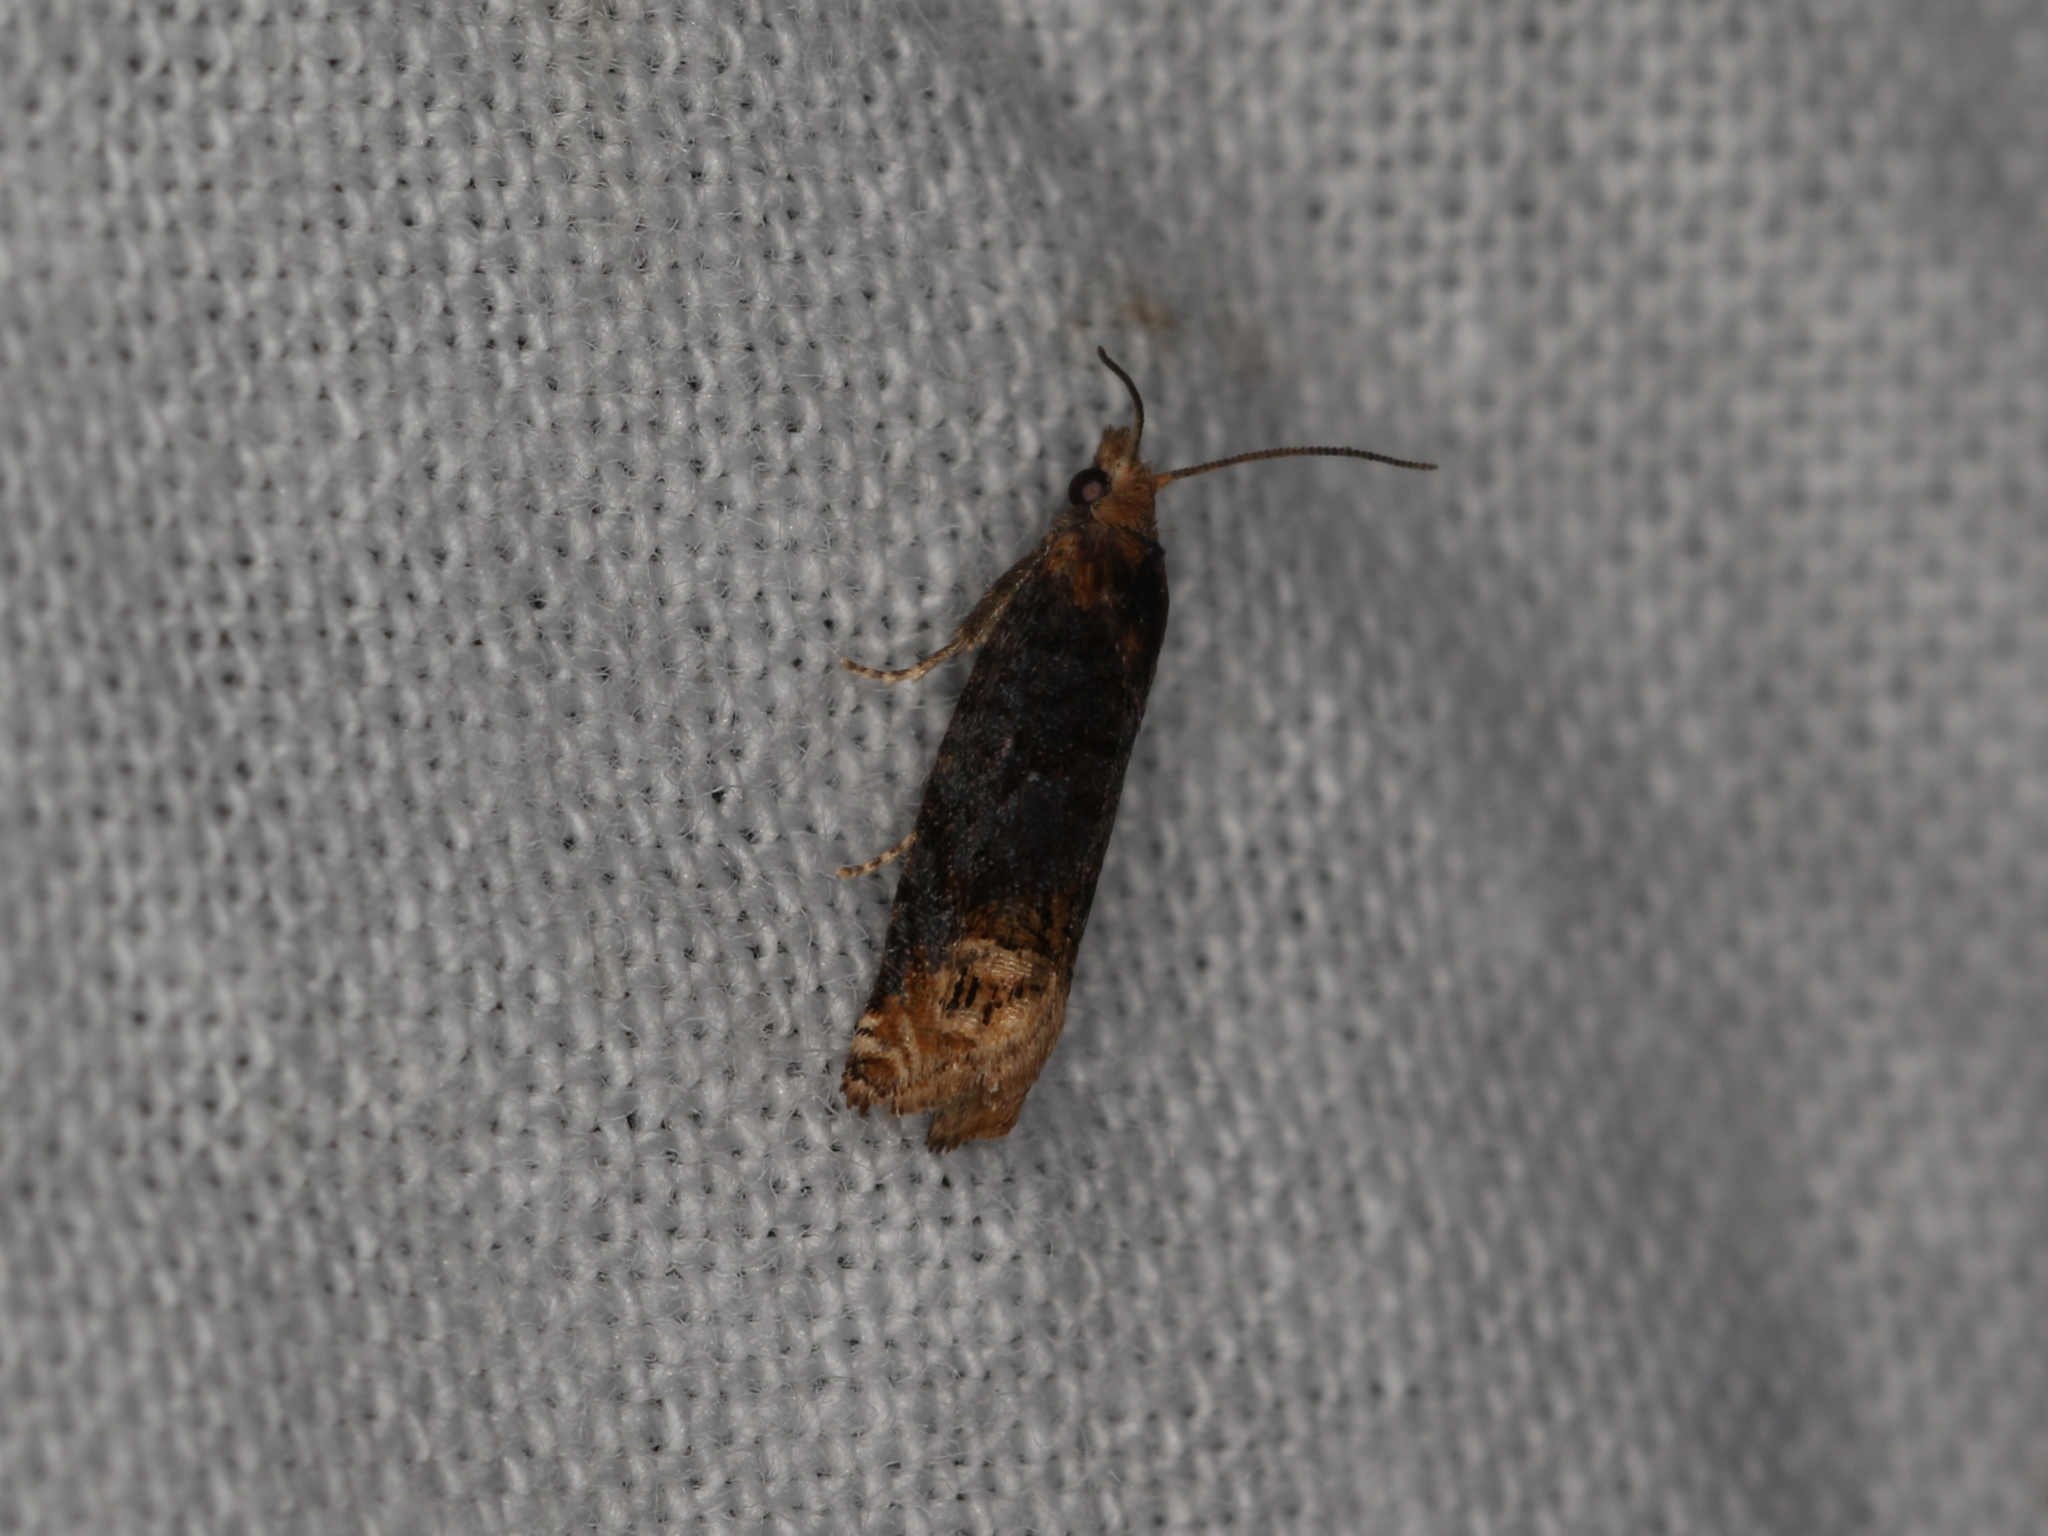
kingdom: Animalia
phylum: Arthropoda
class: Insecta
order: Lepidoptera
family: Tortricidae
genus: Eucosma
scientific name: Eucosma ochroterminana
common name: Buff-tipped eucosma moth
